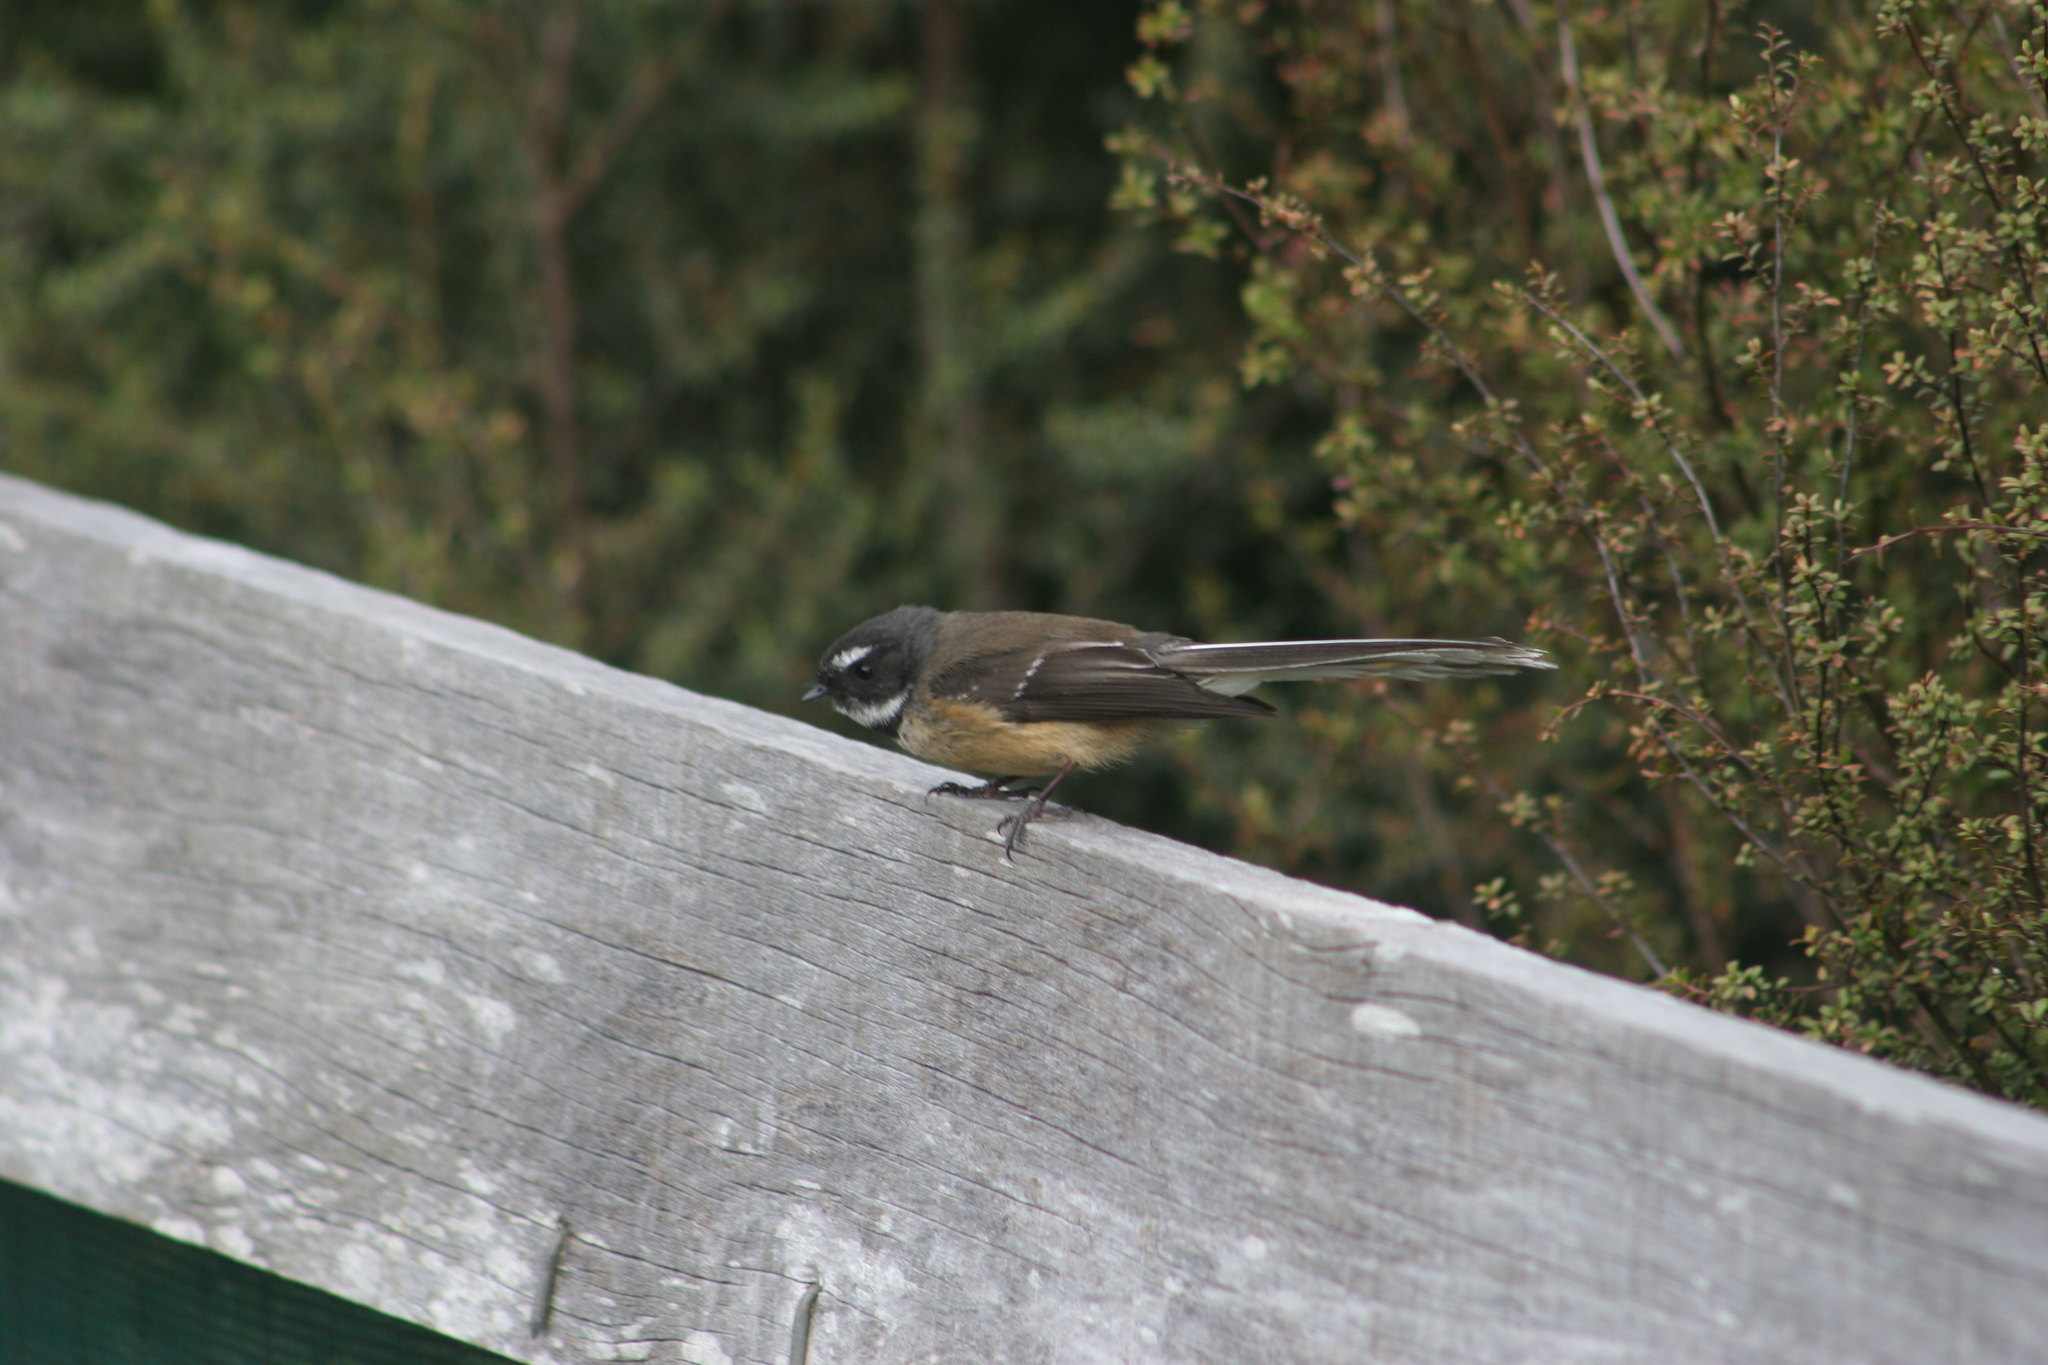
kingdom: Animalia
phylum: Chordata
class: Aves
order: Passeriformes
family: Rhipiduridae
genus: Rhipidura
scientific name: Rhipidura fuliginosa
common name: New zealand fantail
